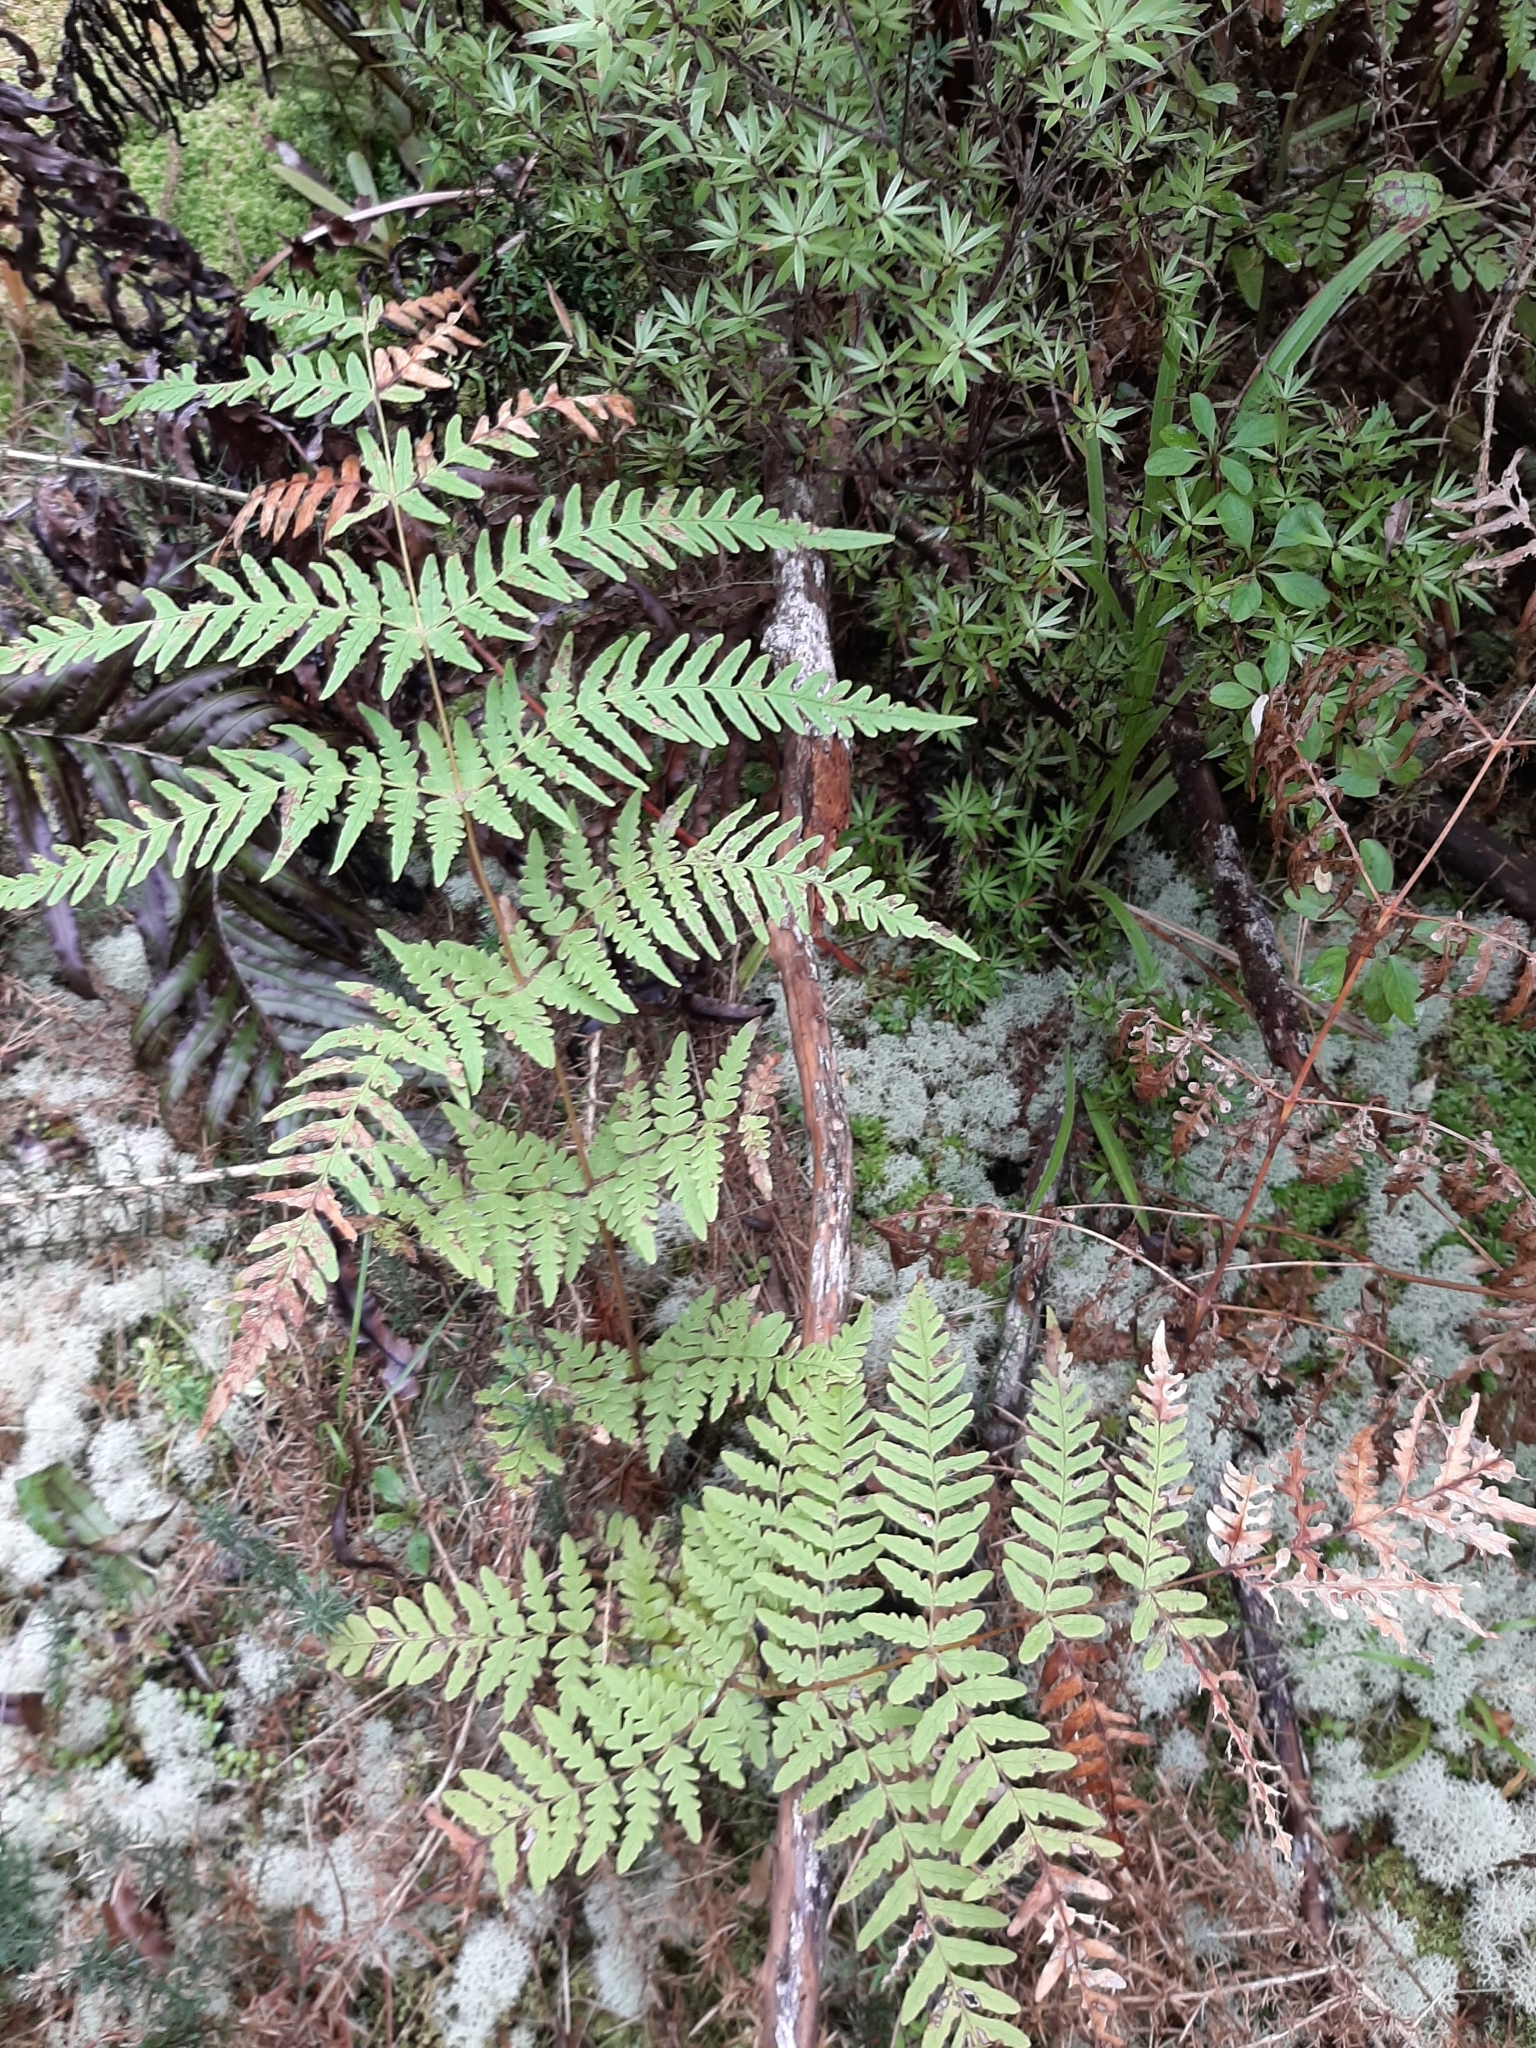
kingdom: Plantae
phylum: Tracheophyta
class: Polypodiopsida
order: Polypodiales
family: Dennstaedtiaceae
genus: Histiopteris
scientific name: Histiopteris incisa
